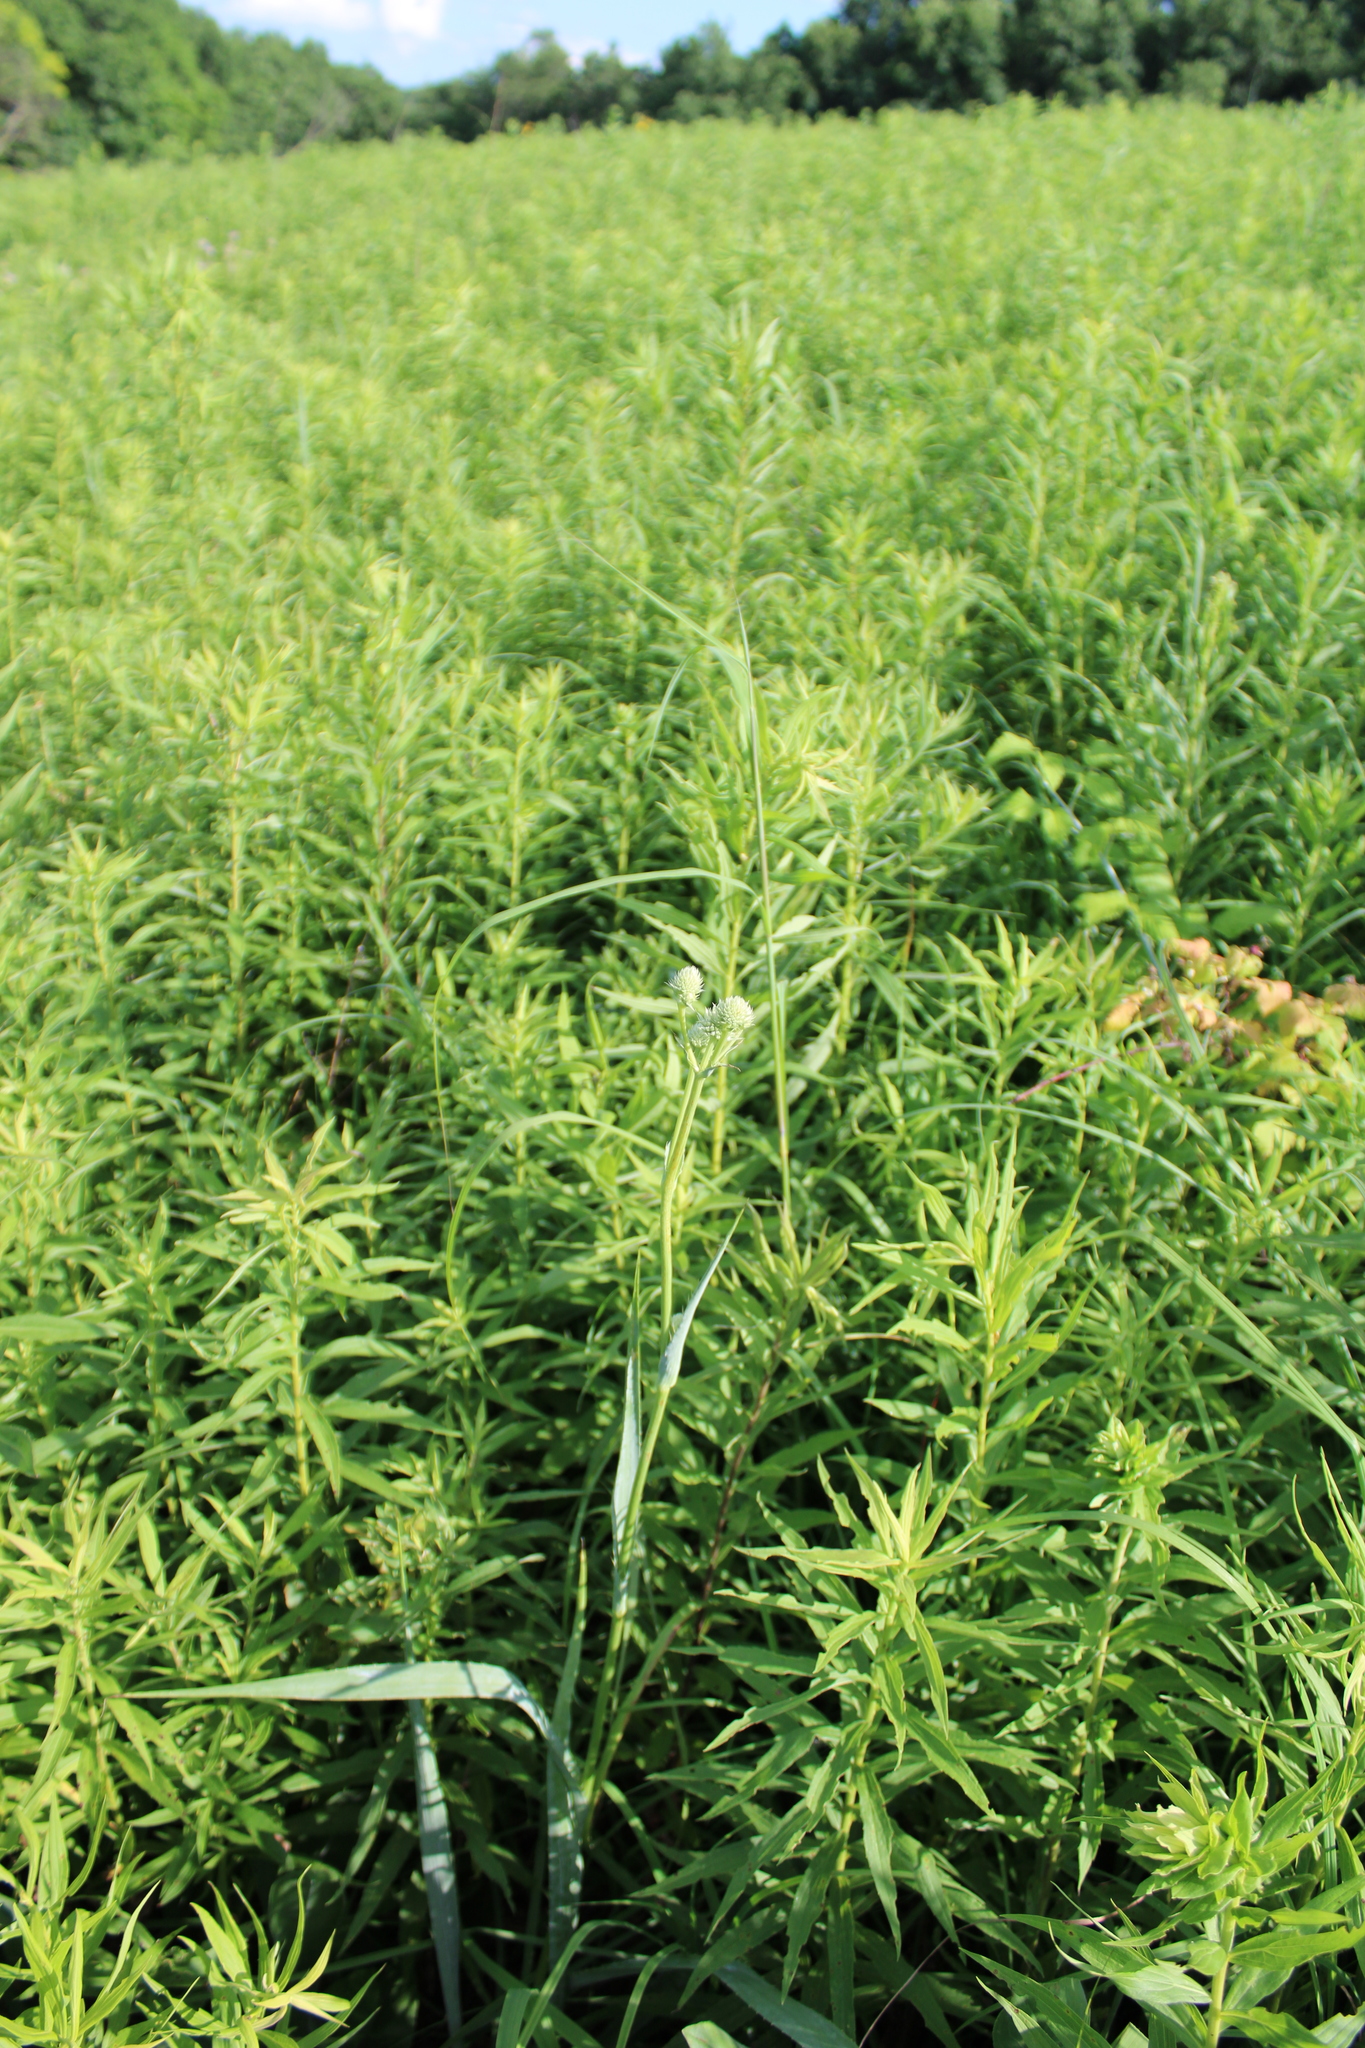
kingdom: Plantae
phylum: Tracheophyta
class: Magnoliopsida
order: Apiales
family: Apiaceae
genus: Eryngium
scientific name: Eryngium yuccifolium
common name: Button eryngo
